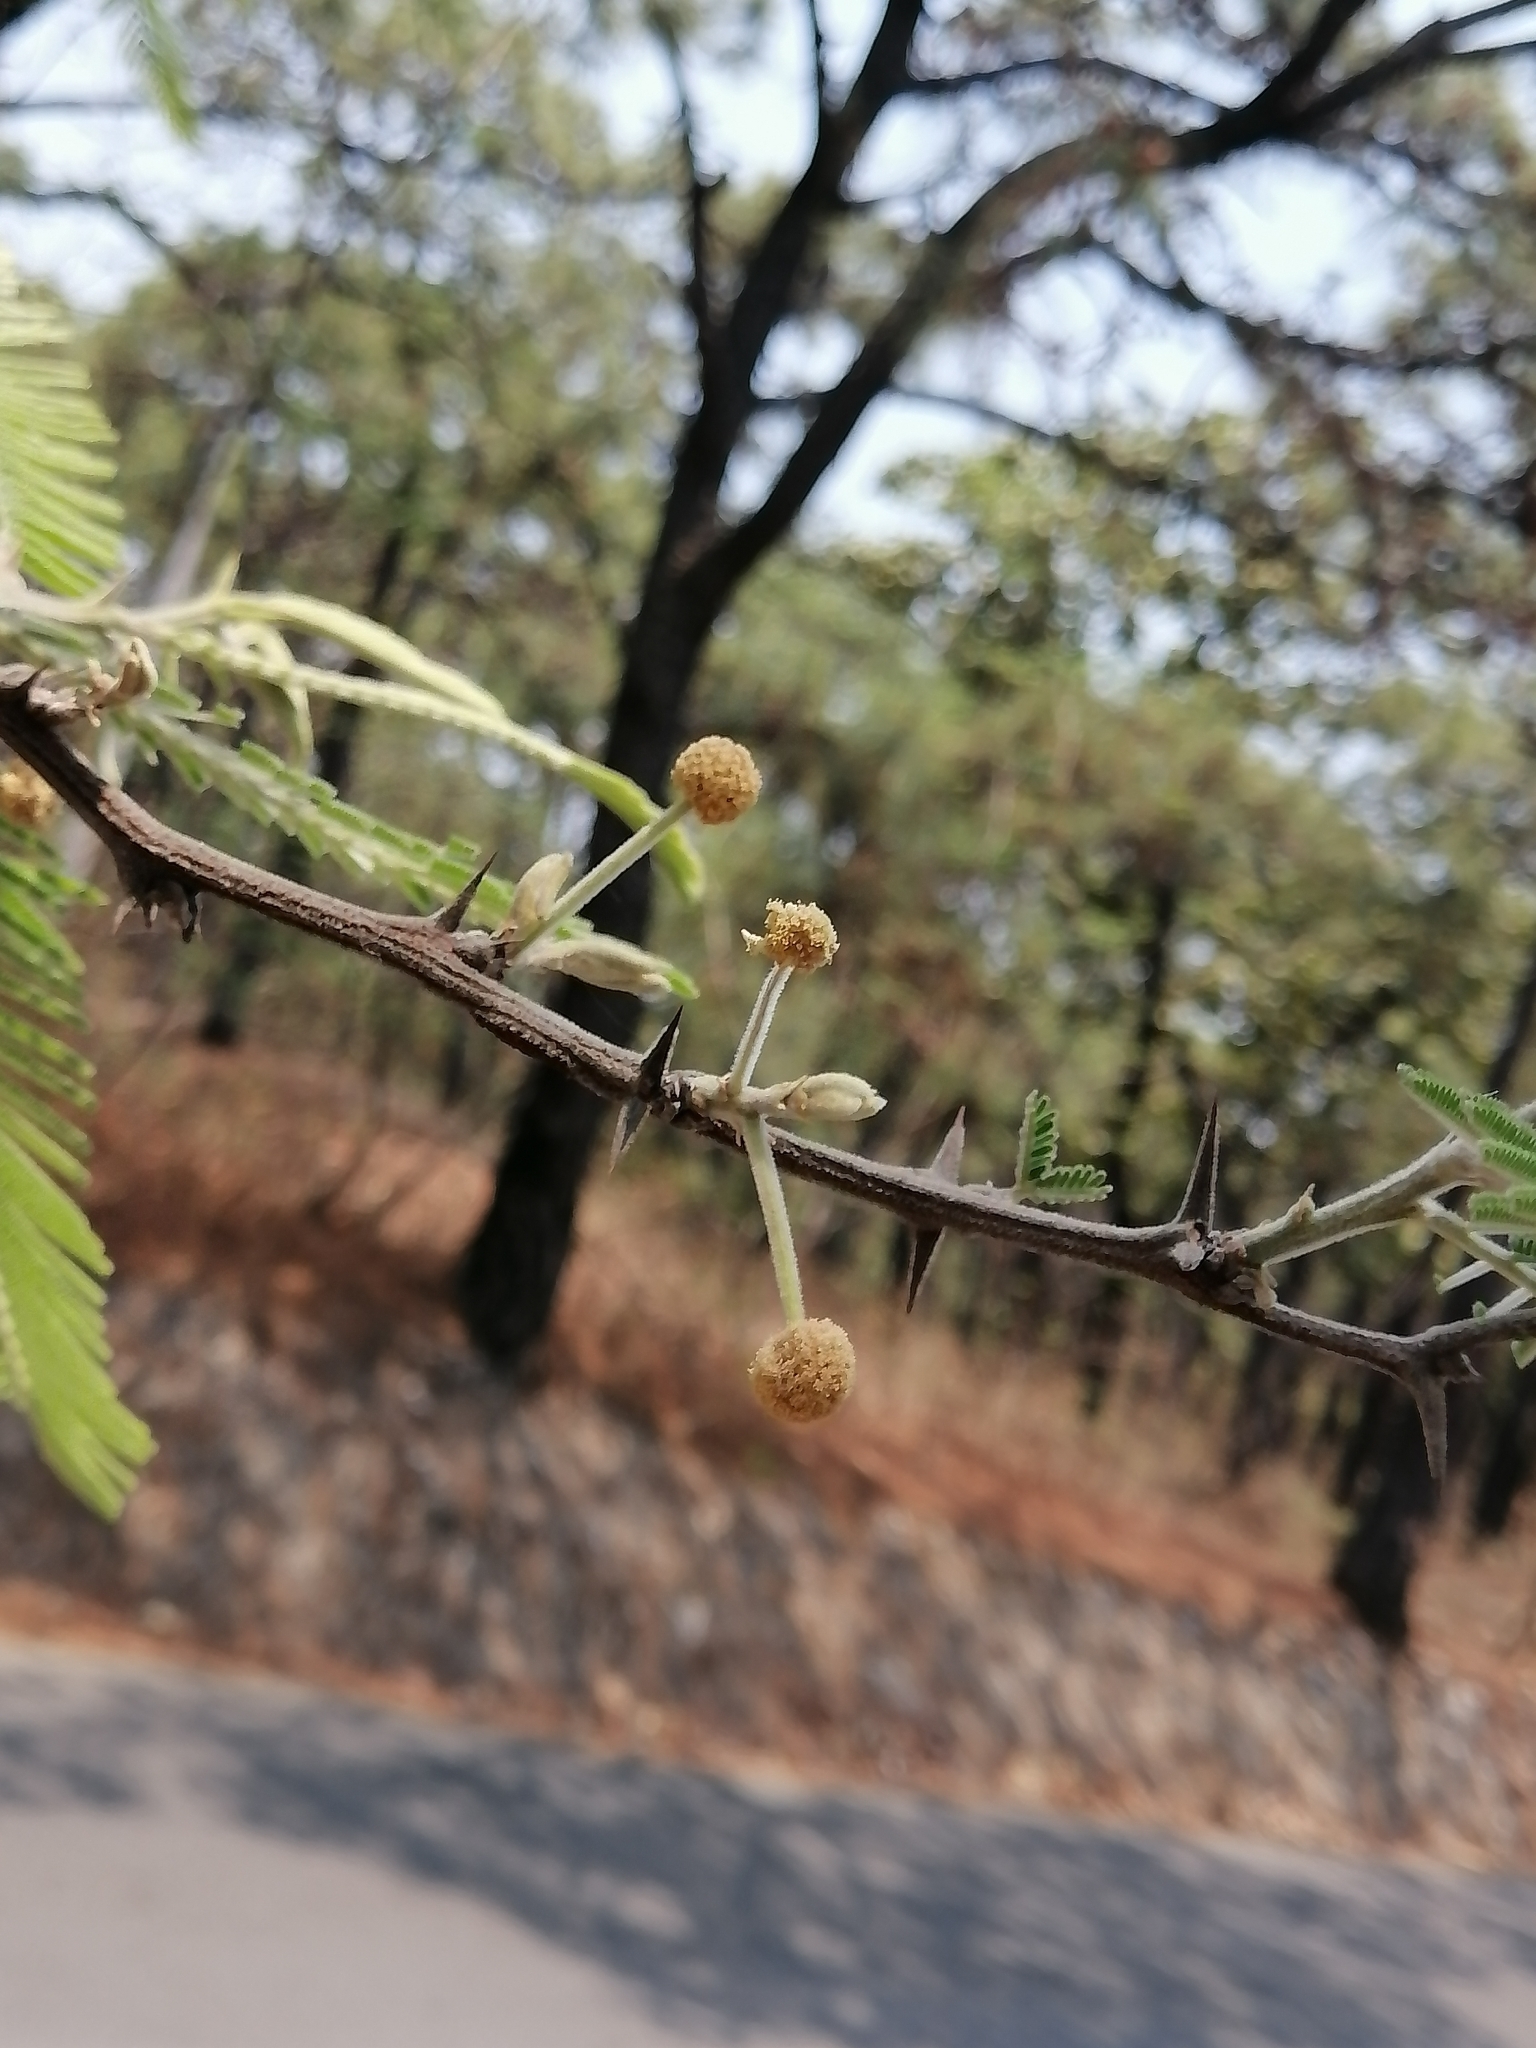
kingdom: Plantae
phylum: Tracheophyta
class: Magnoliopsida
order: Fabales
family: Fabaceae
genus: Vachellia
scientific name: Vachellia pennatula
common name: Fern-leaf acacia
